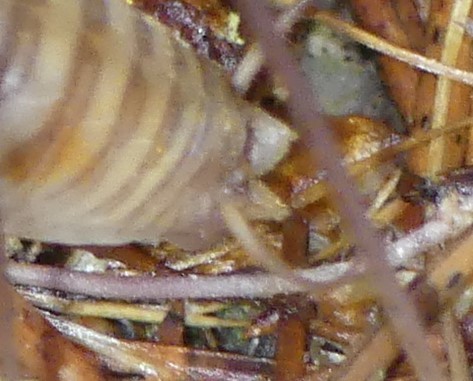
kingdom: Animalia
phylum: Arthropoda
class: Insecta
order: Orthoptera
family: Rhaphidophoridae
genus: Dolichopoda
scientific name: Dolichopoda cyrnensis
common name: Cymi cave-cricket
